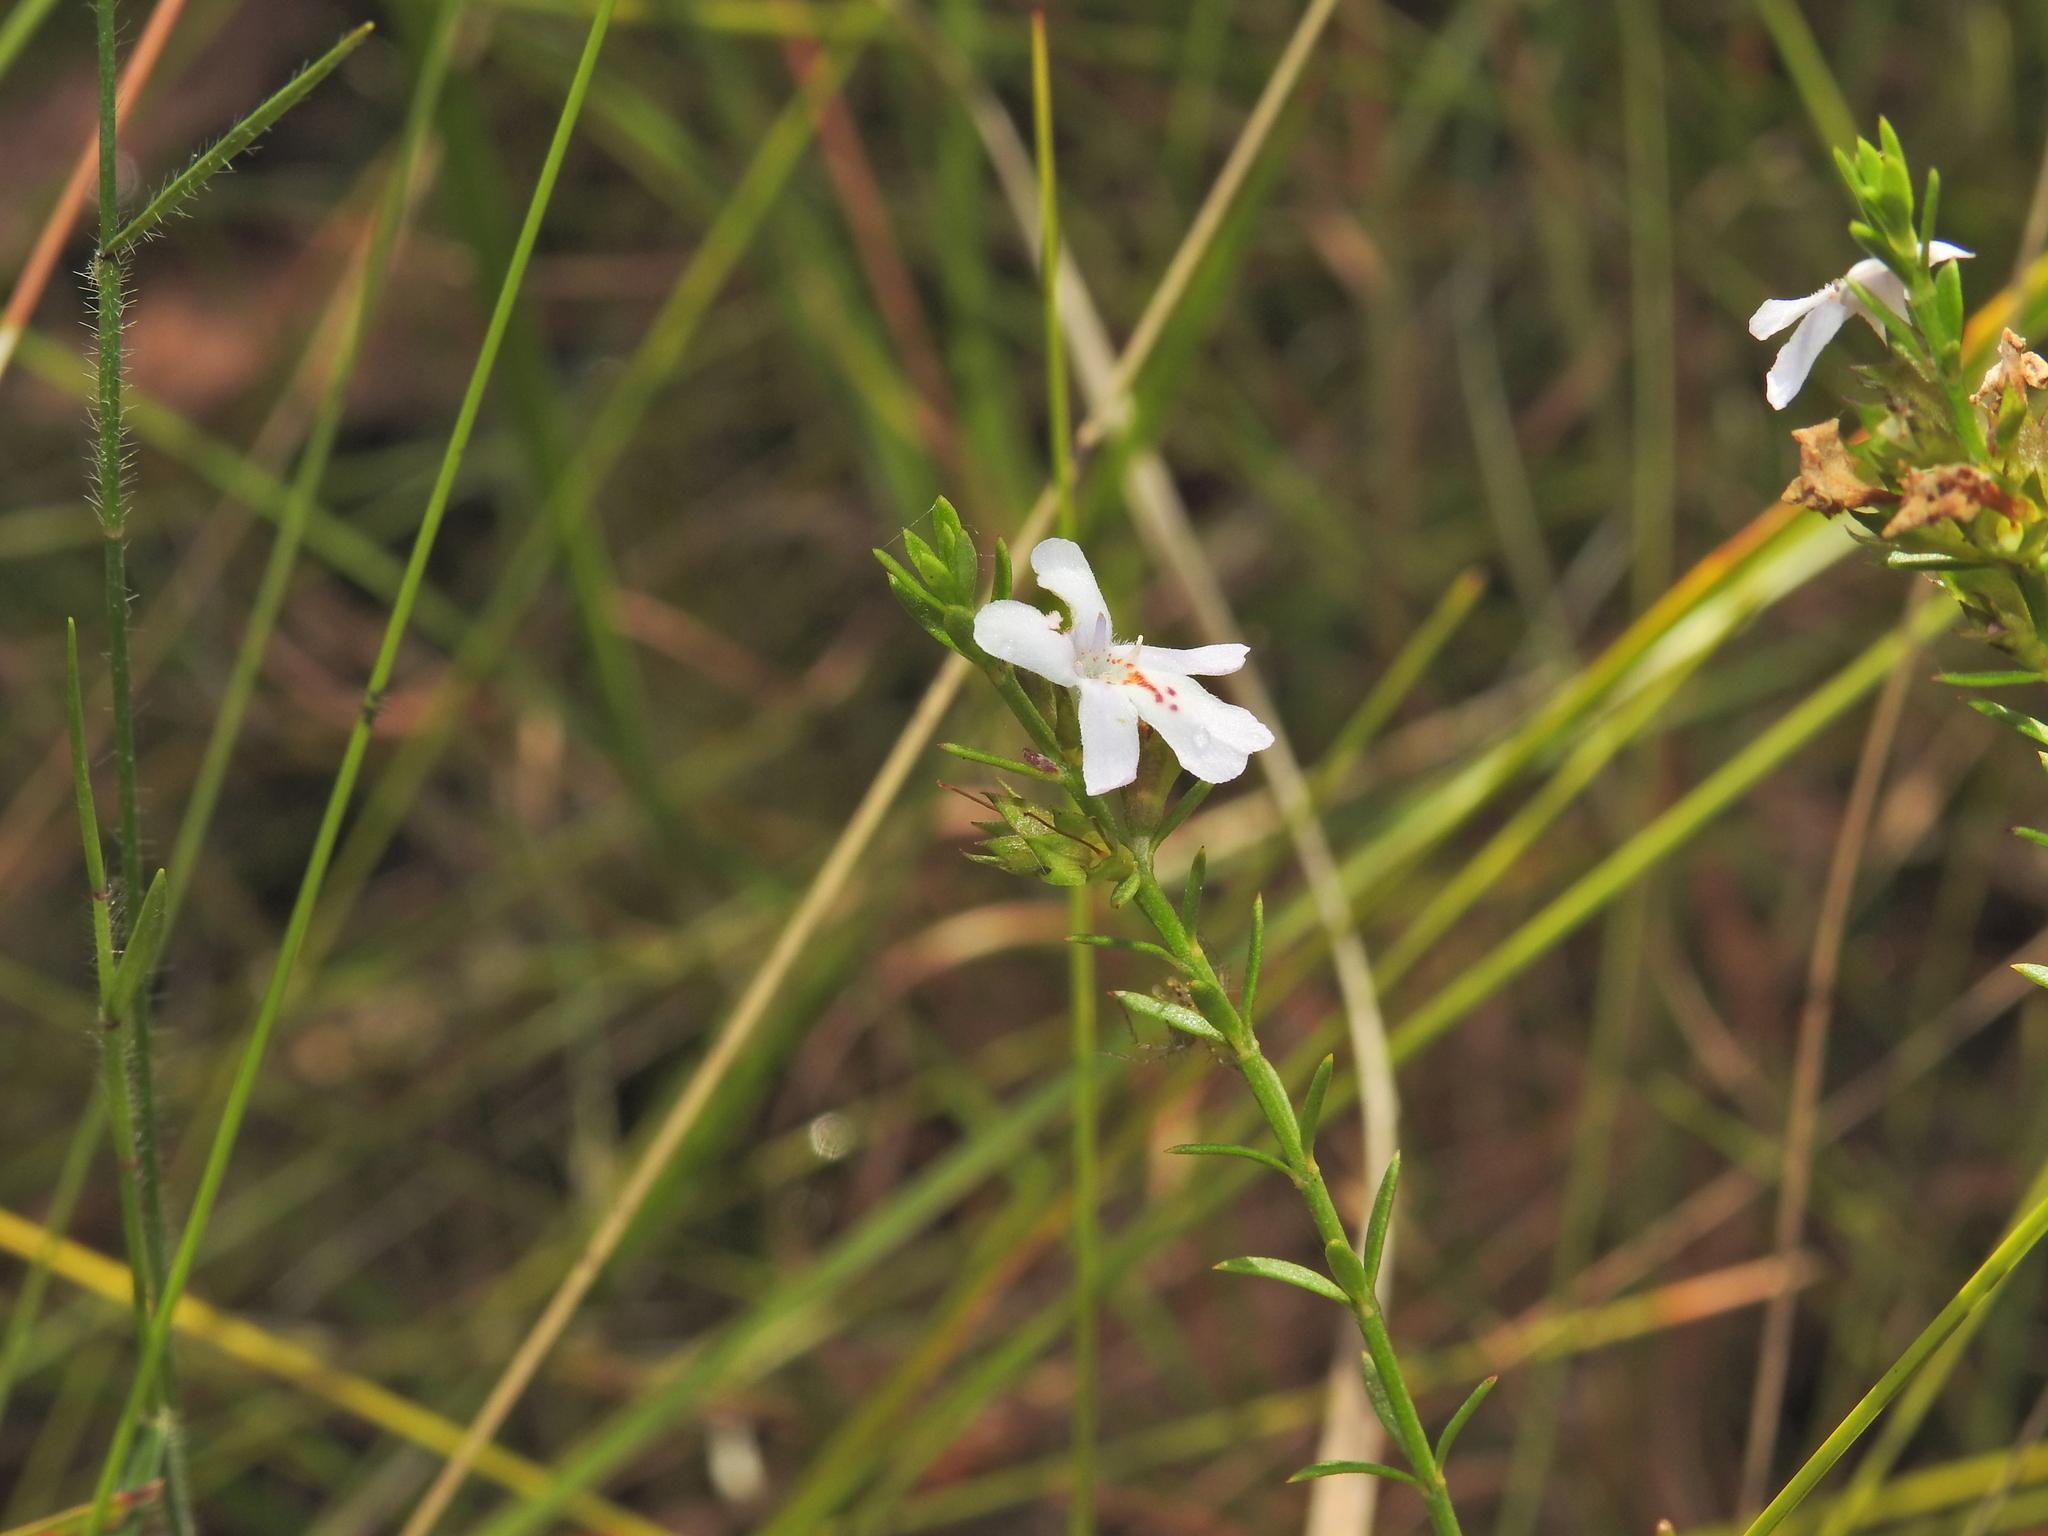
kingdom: Plantae
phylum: Tracheophyta
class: Magnoliopsida
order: Lamiales
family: Lamiaceae
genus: Westringia
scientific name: Westringia tenuicaulis
